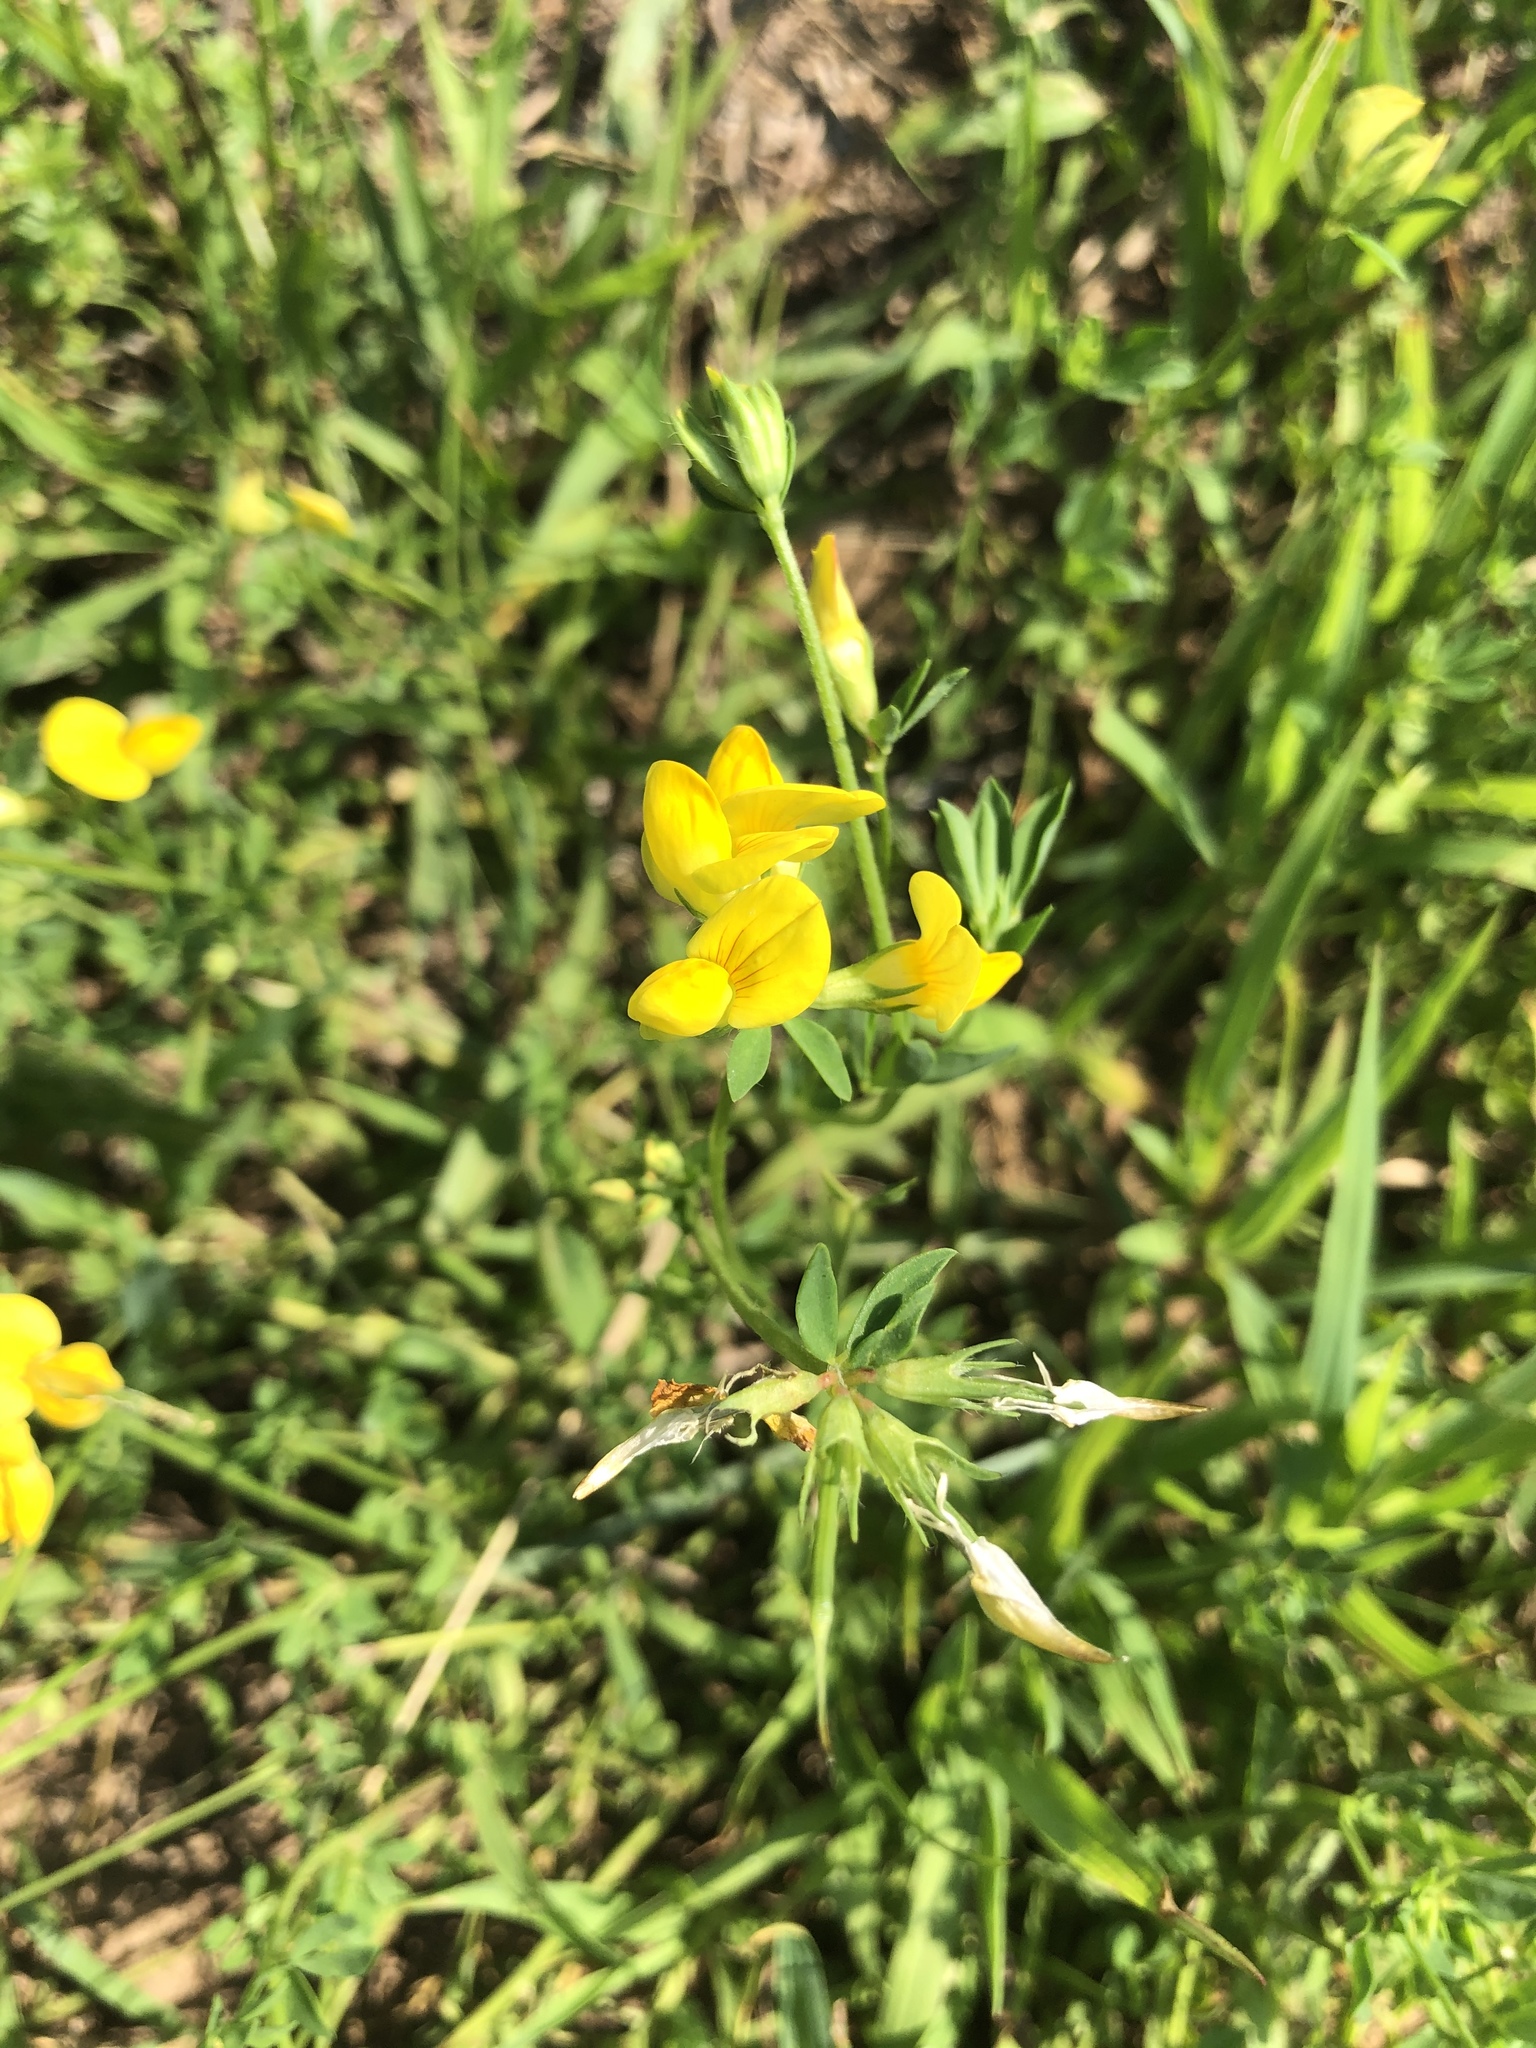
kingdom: Plantae
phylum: Tracheophyta
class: Magnoliopsida
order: Fabales
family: Fabaceae
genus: Lotus
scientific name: Lotus corniculatus
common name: Common bird's-foot-trefoil
